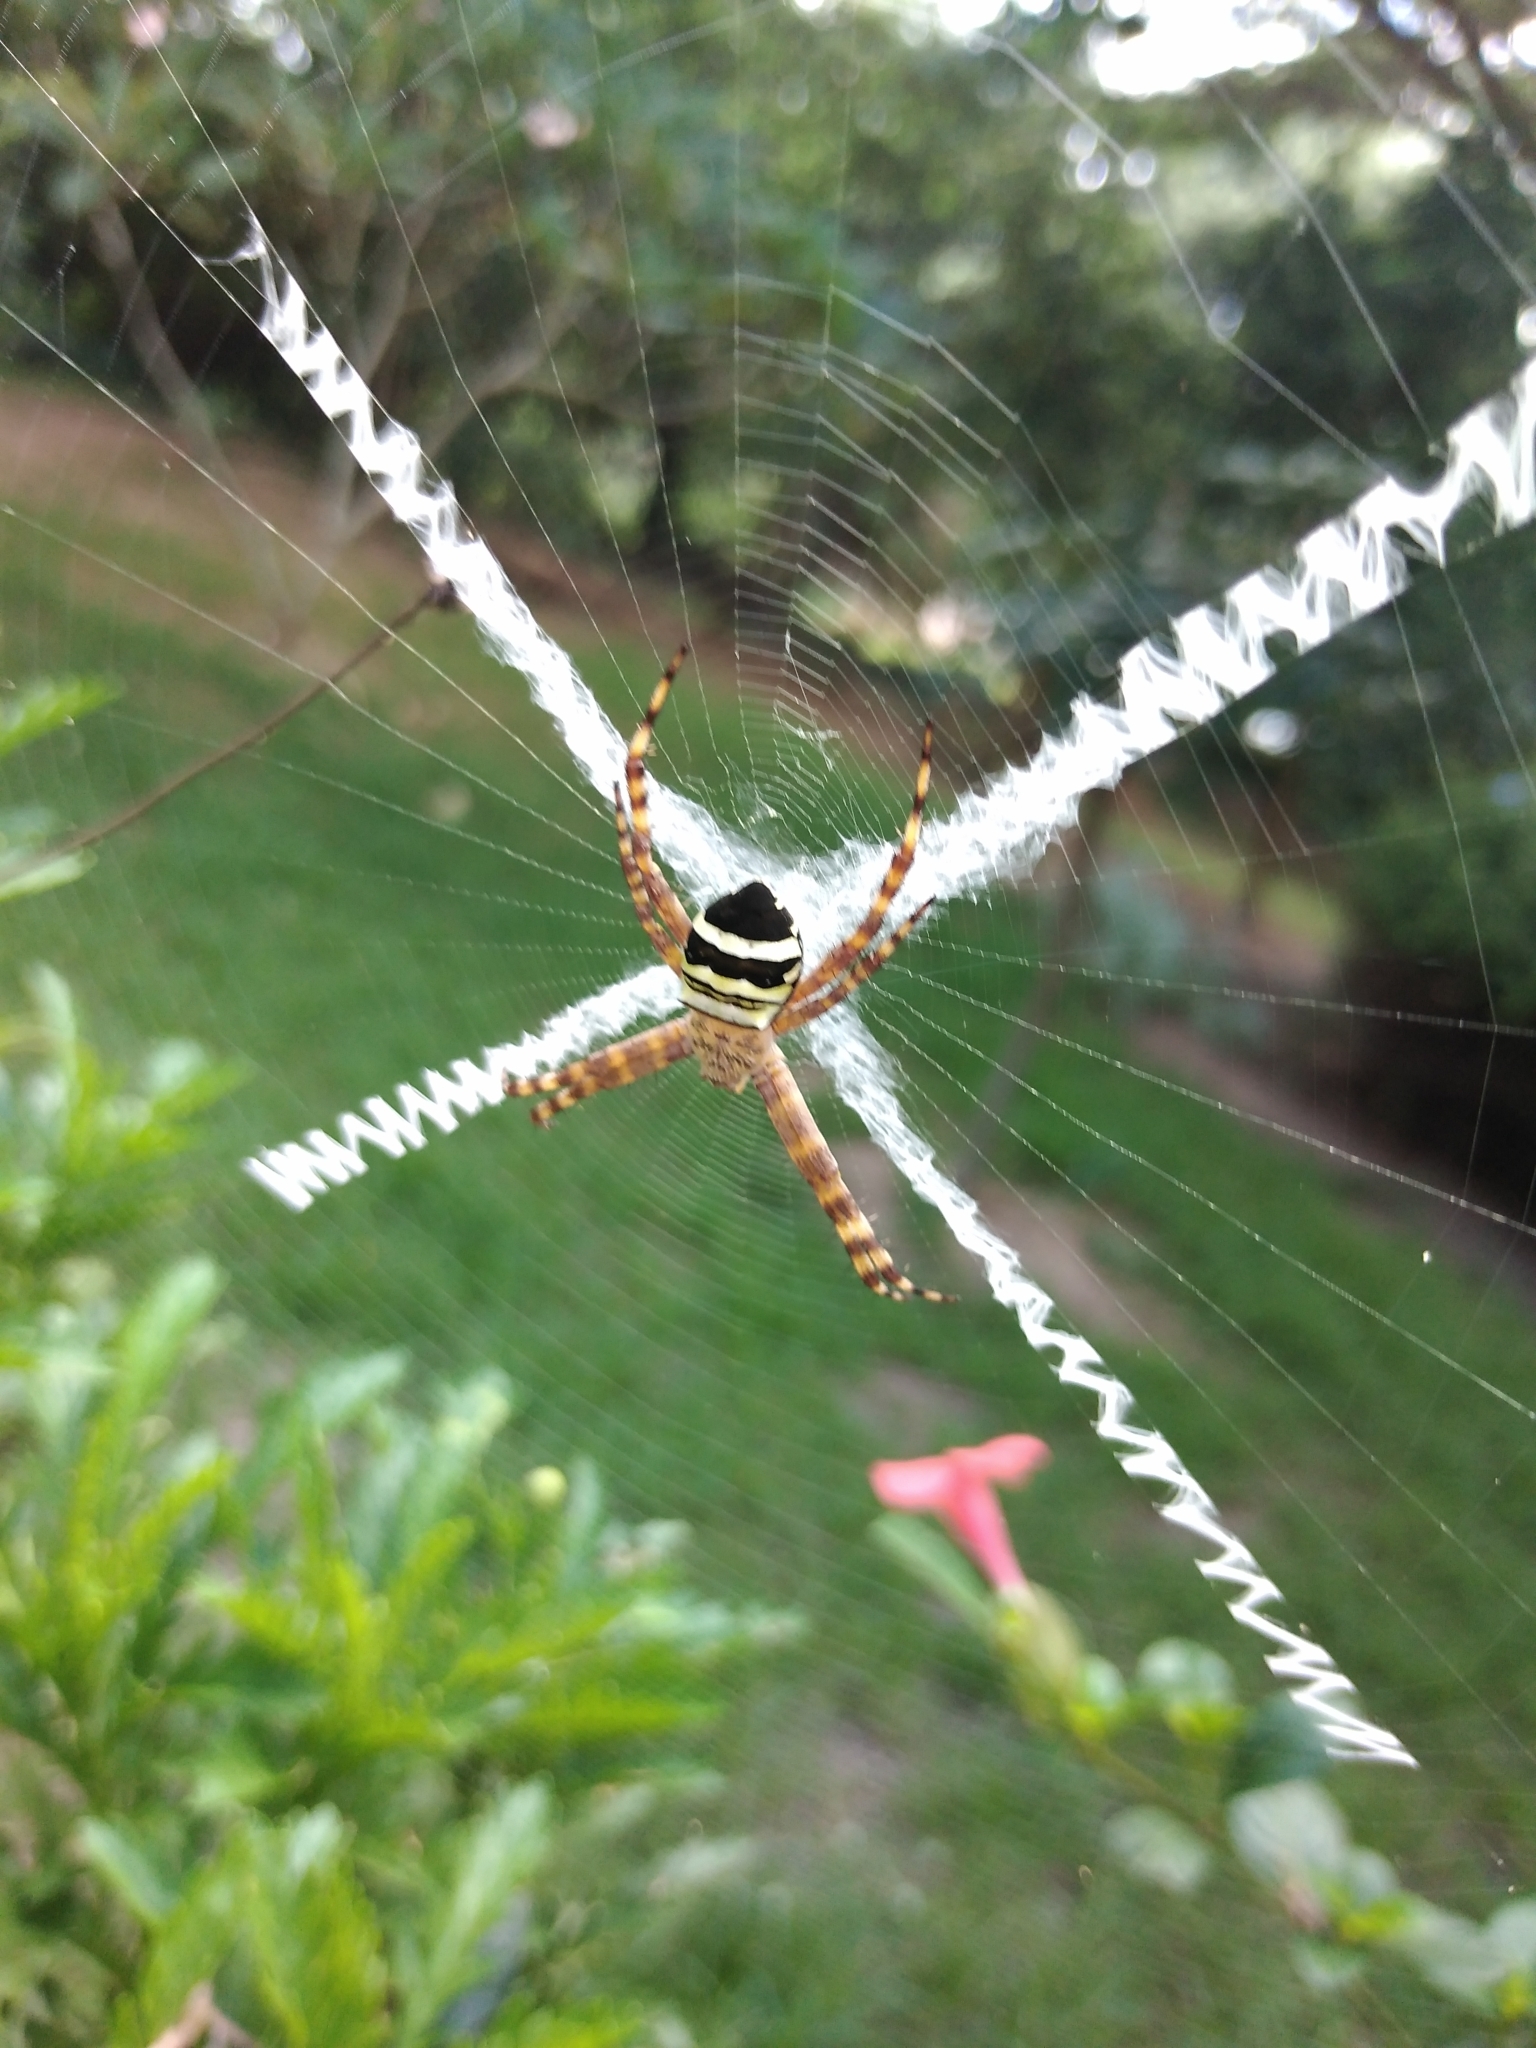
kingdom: Animalia
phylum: Arthropoda
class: Arachnida
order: Araneae
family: Araneidae
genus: Argiope
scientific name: Argiope aurocincta
